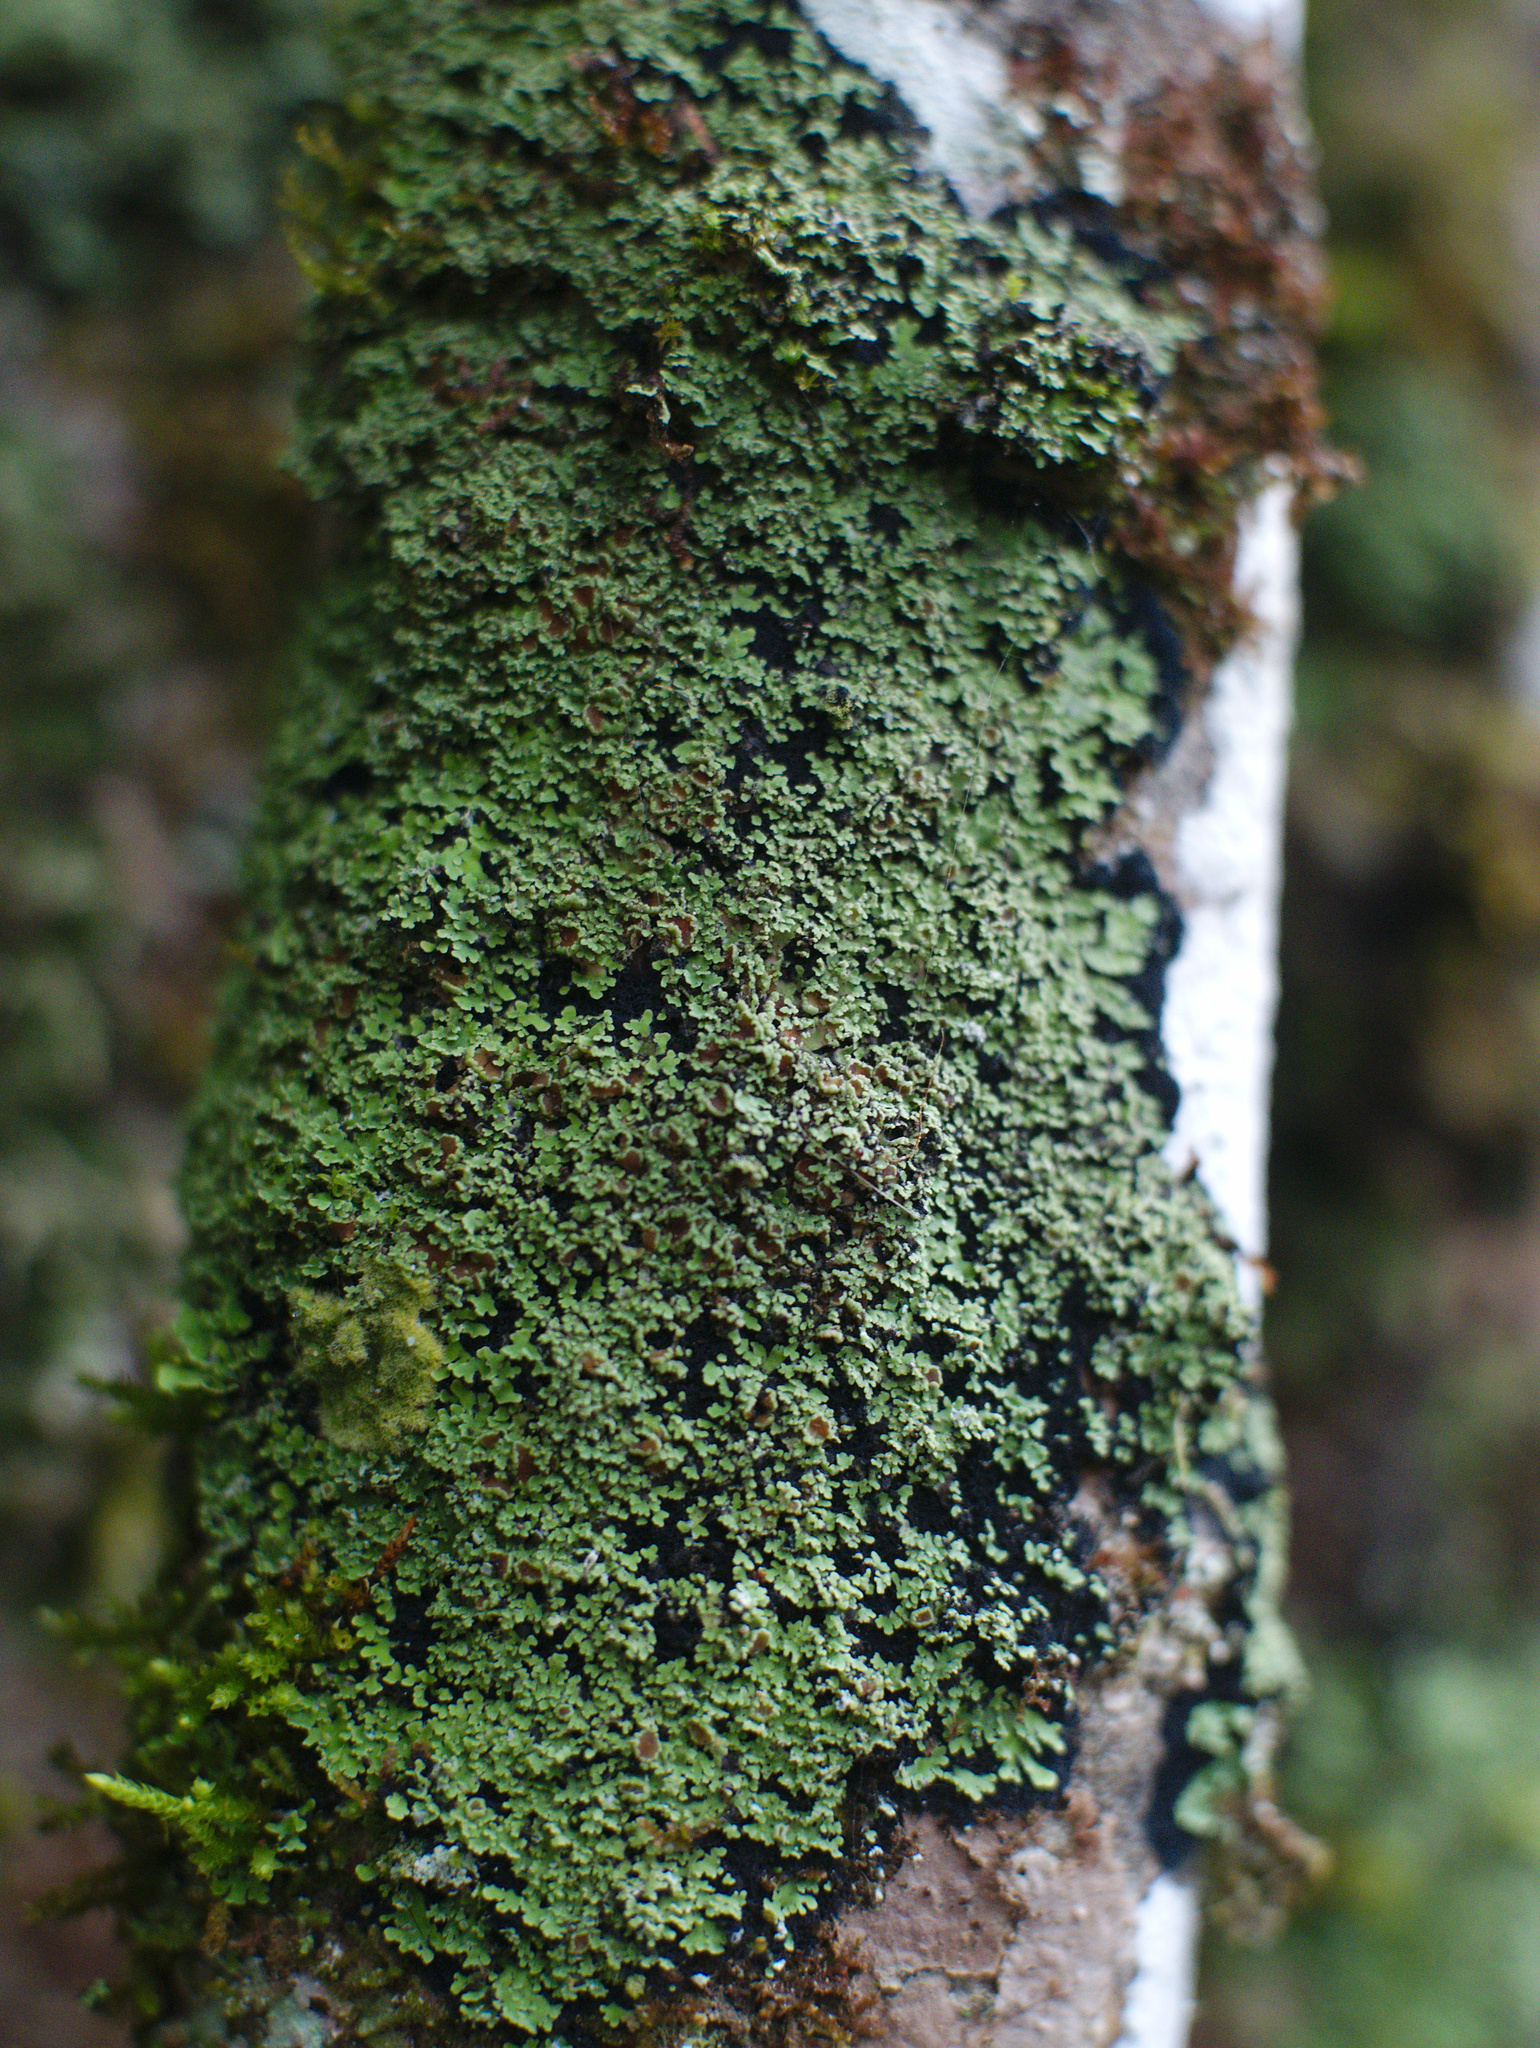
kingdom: Fungi
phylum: Ascomycota
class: Lecanoromycetes
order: Peltigerales
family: Pannariaceae
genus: Pannaria
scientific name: Pannaria athroophylla
